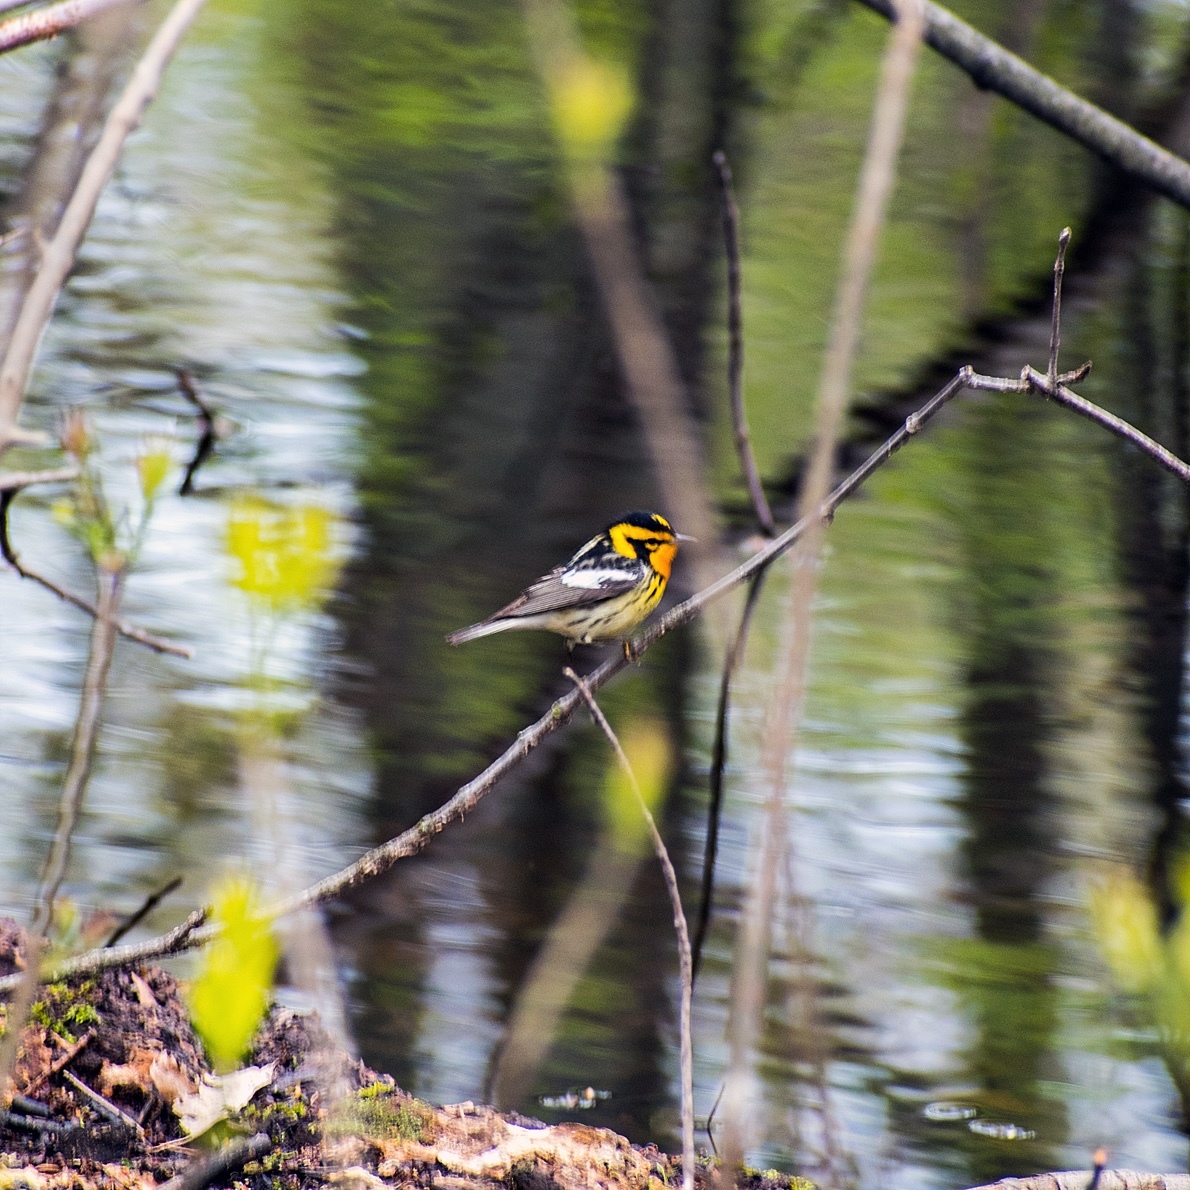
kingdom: Animalia
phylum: Chordata
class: Aves
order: Passeriformes
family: Parulidae
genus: Setophaga
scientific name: Setophaga fusca
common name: Blackburnian warbler
